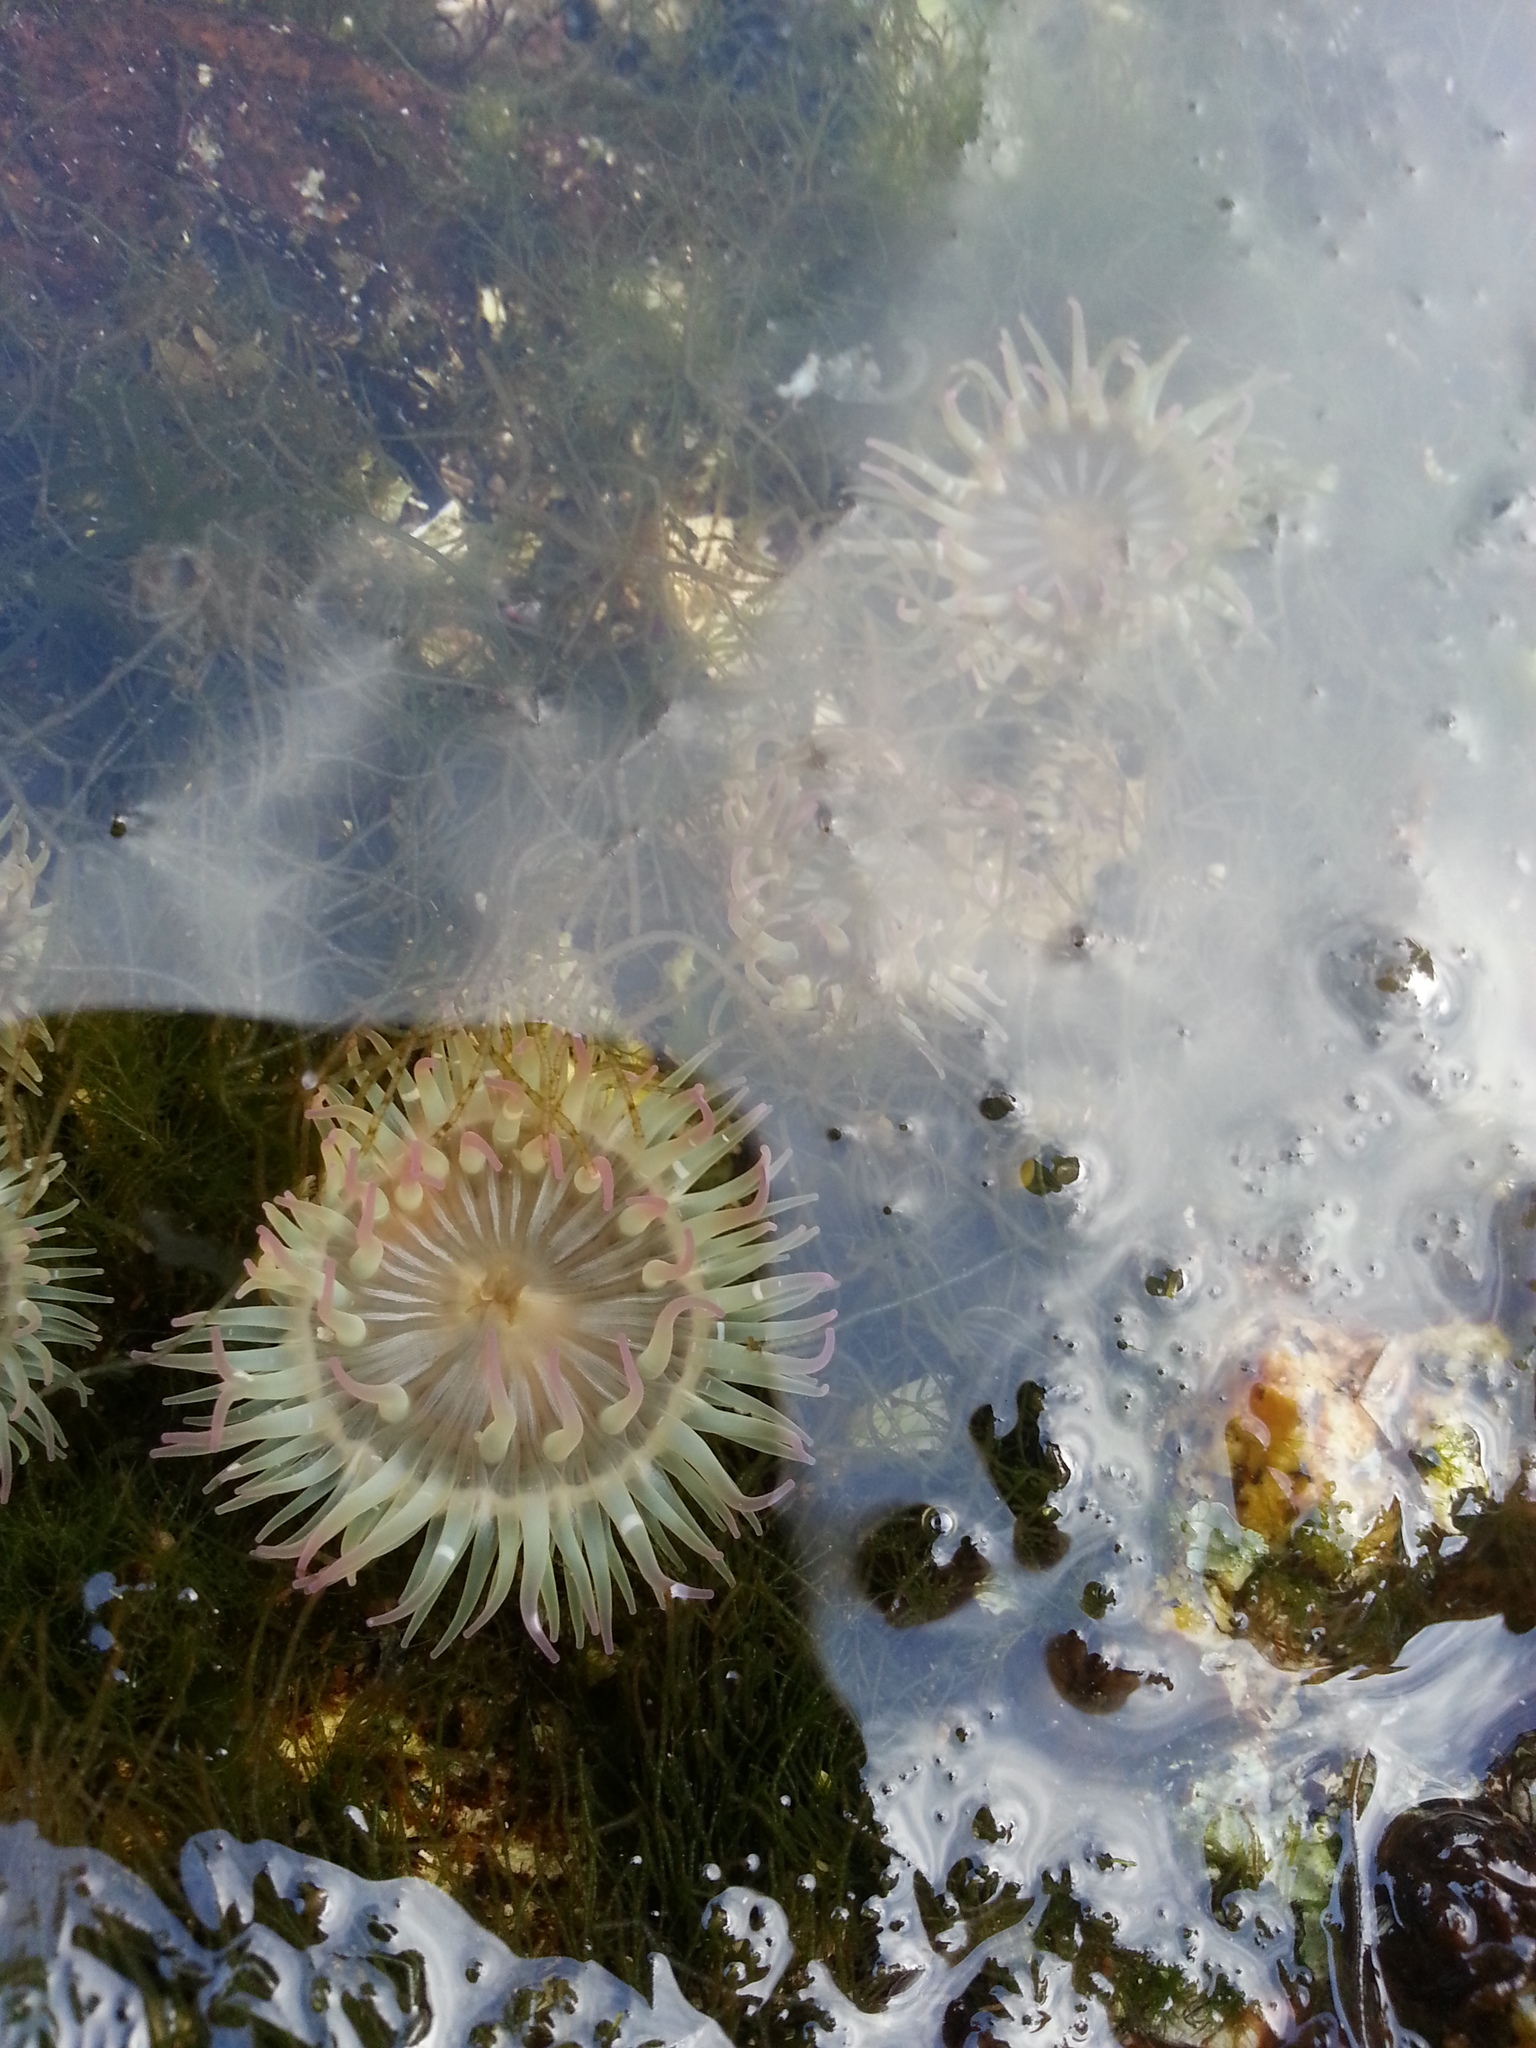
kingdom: Animalia
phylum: Cnidaria
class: Anthozoa
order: Actiniaria
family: Actiniidae
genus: Anthopleura
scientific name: Anthopleura elegantissima
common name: Clonal anemone
